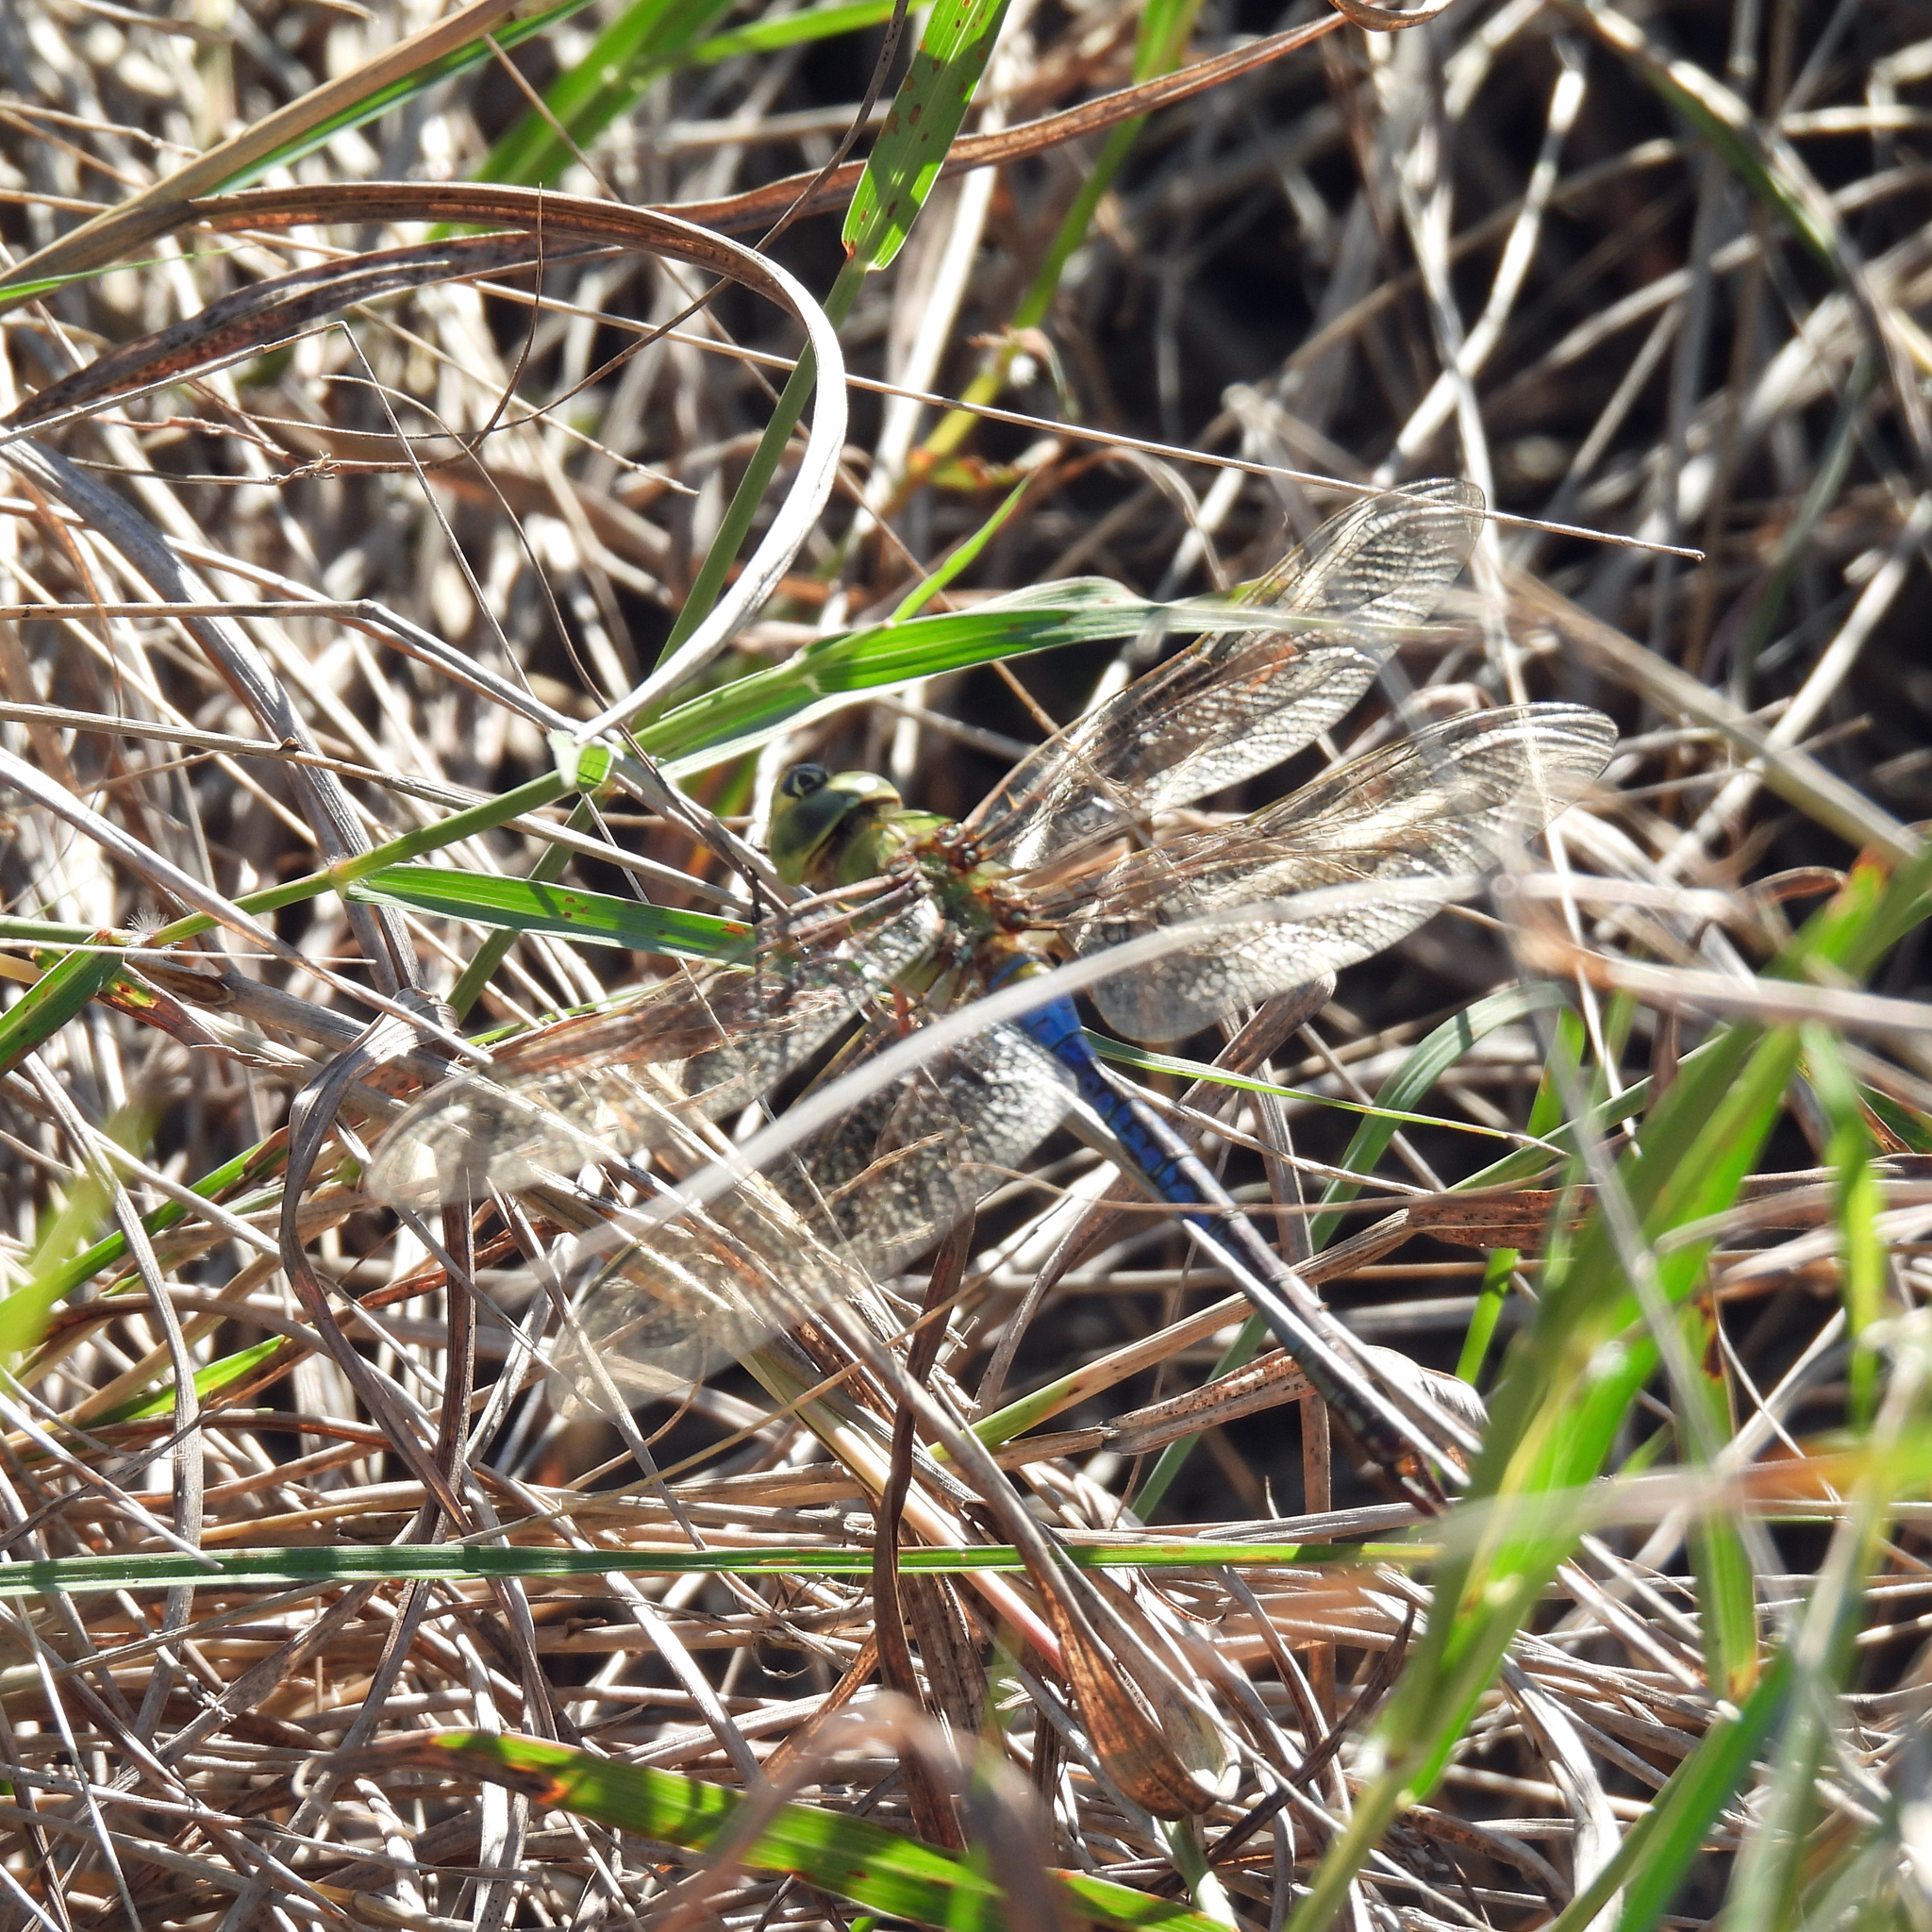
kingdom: Animalia
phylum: Arthropoda
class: Insecta
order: Odonata
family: Aeshnidae
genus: Anax
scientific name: Anax junius
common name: Common green darner
